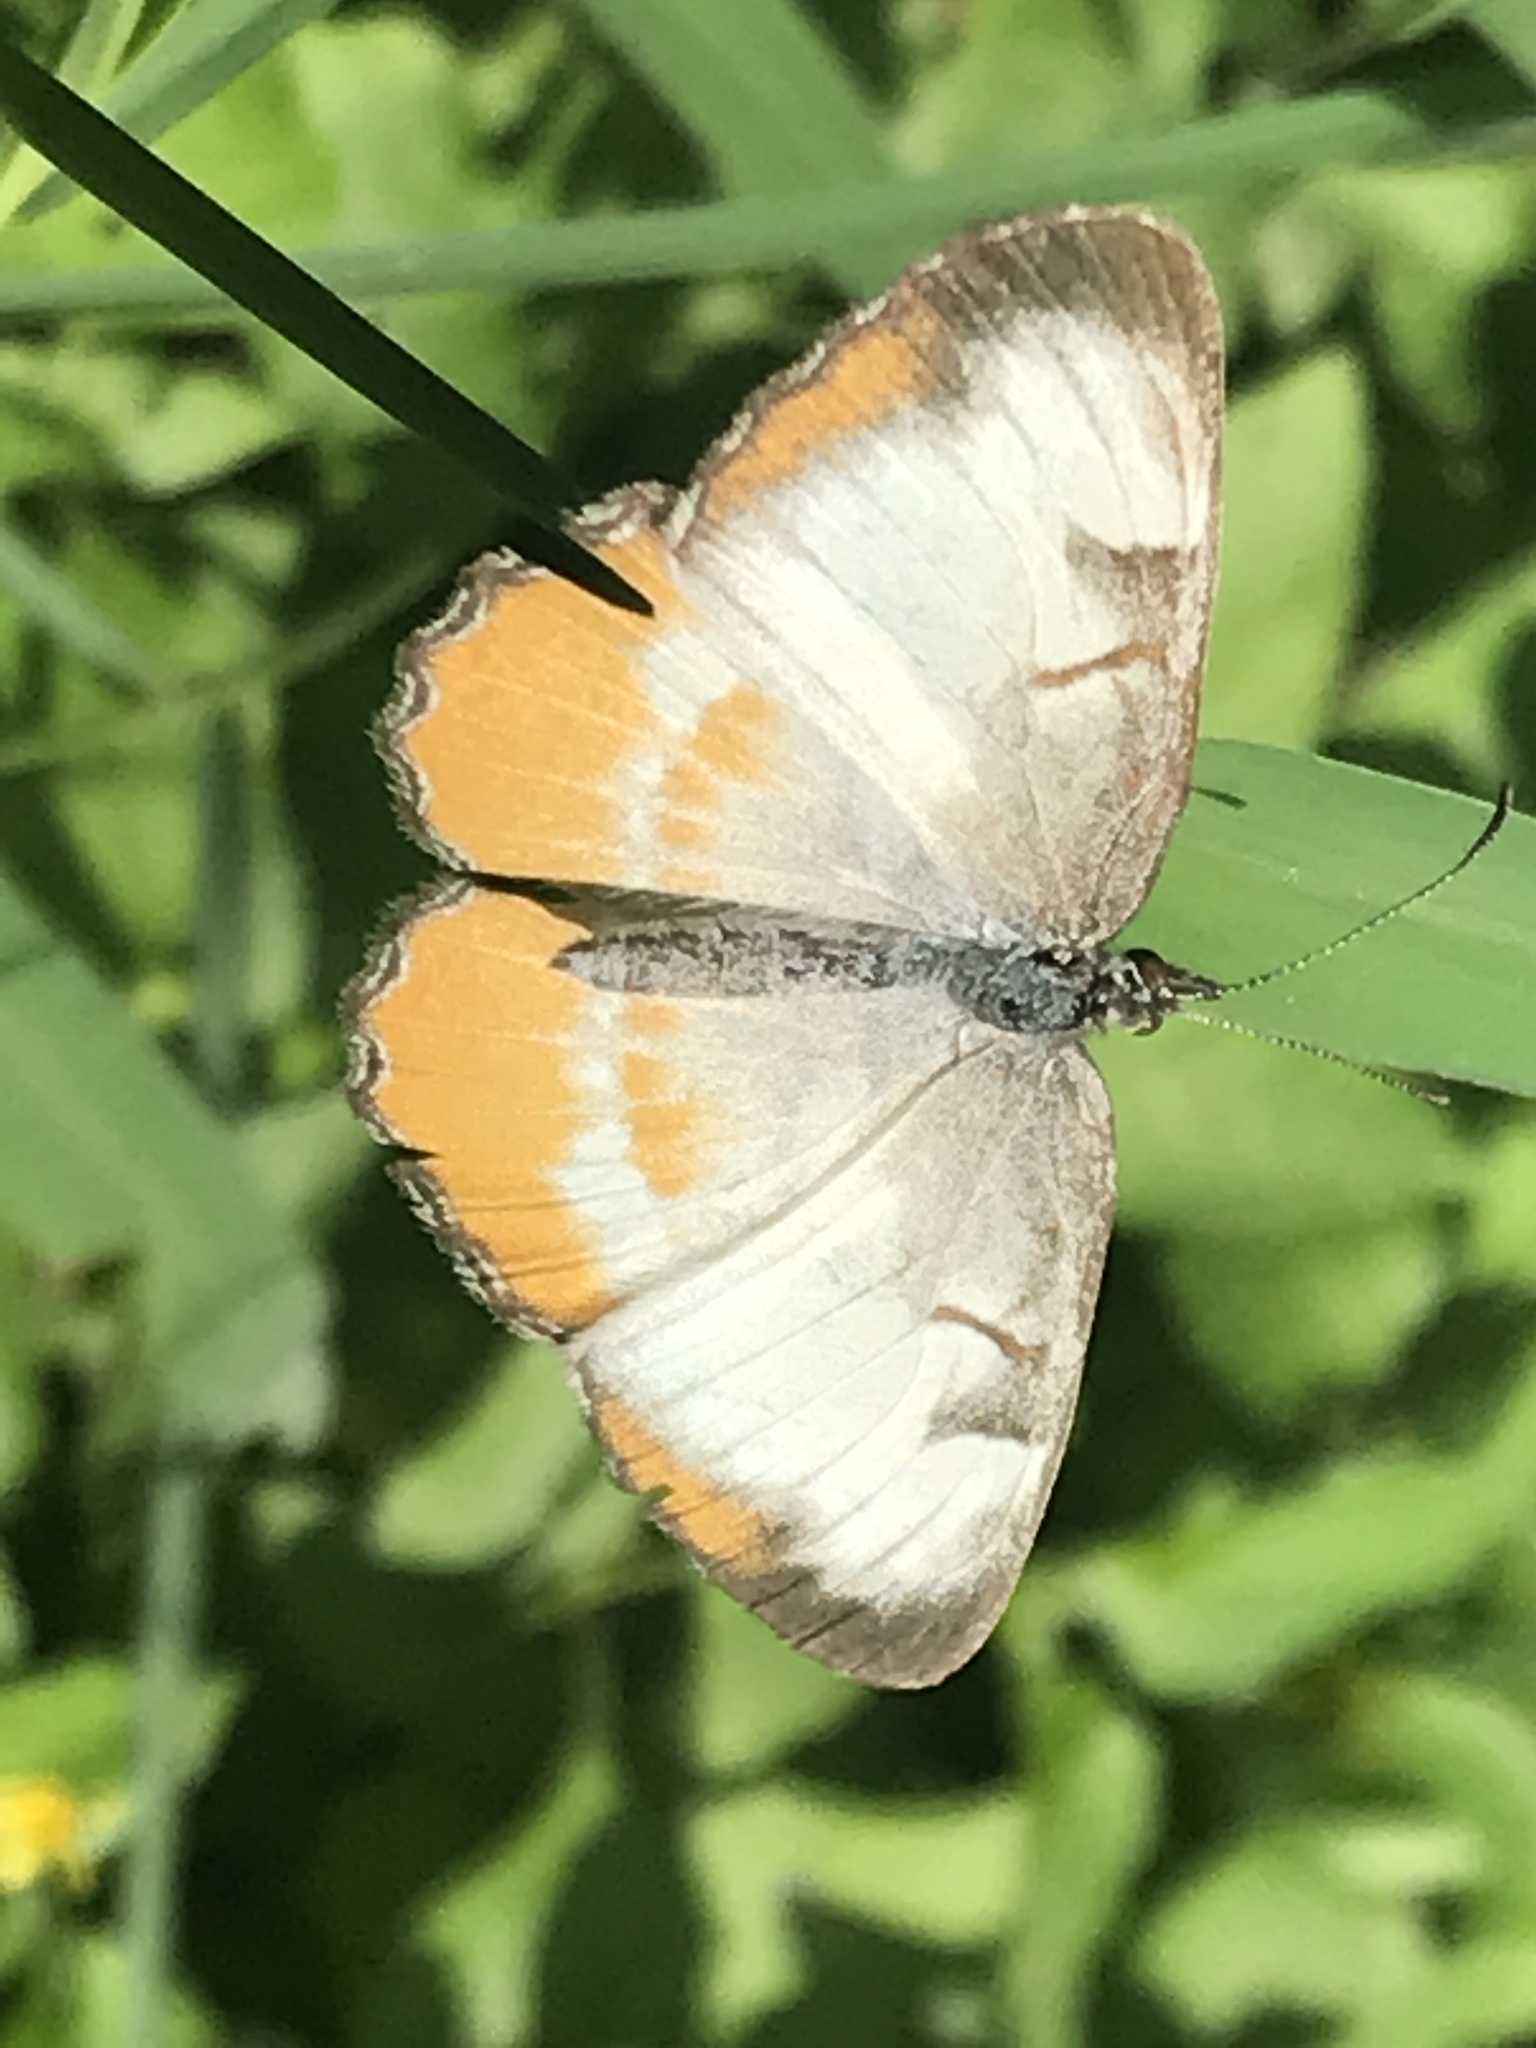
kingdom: Animalia
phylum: Arthropoda
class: Insecta
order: Lepidoptera
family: Nymphalidae
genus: Mestra
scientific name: Mestra amymone
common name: Common mestra
